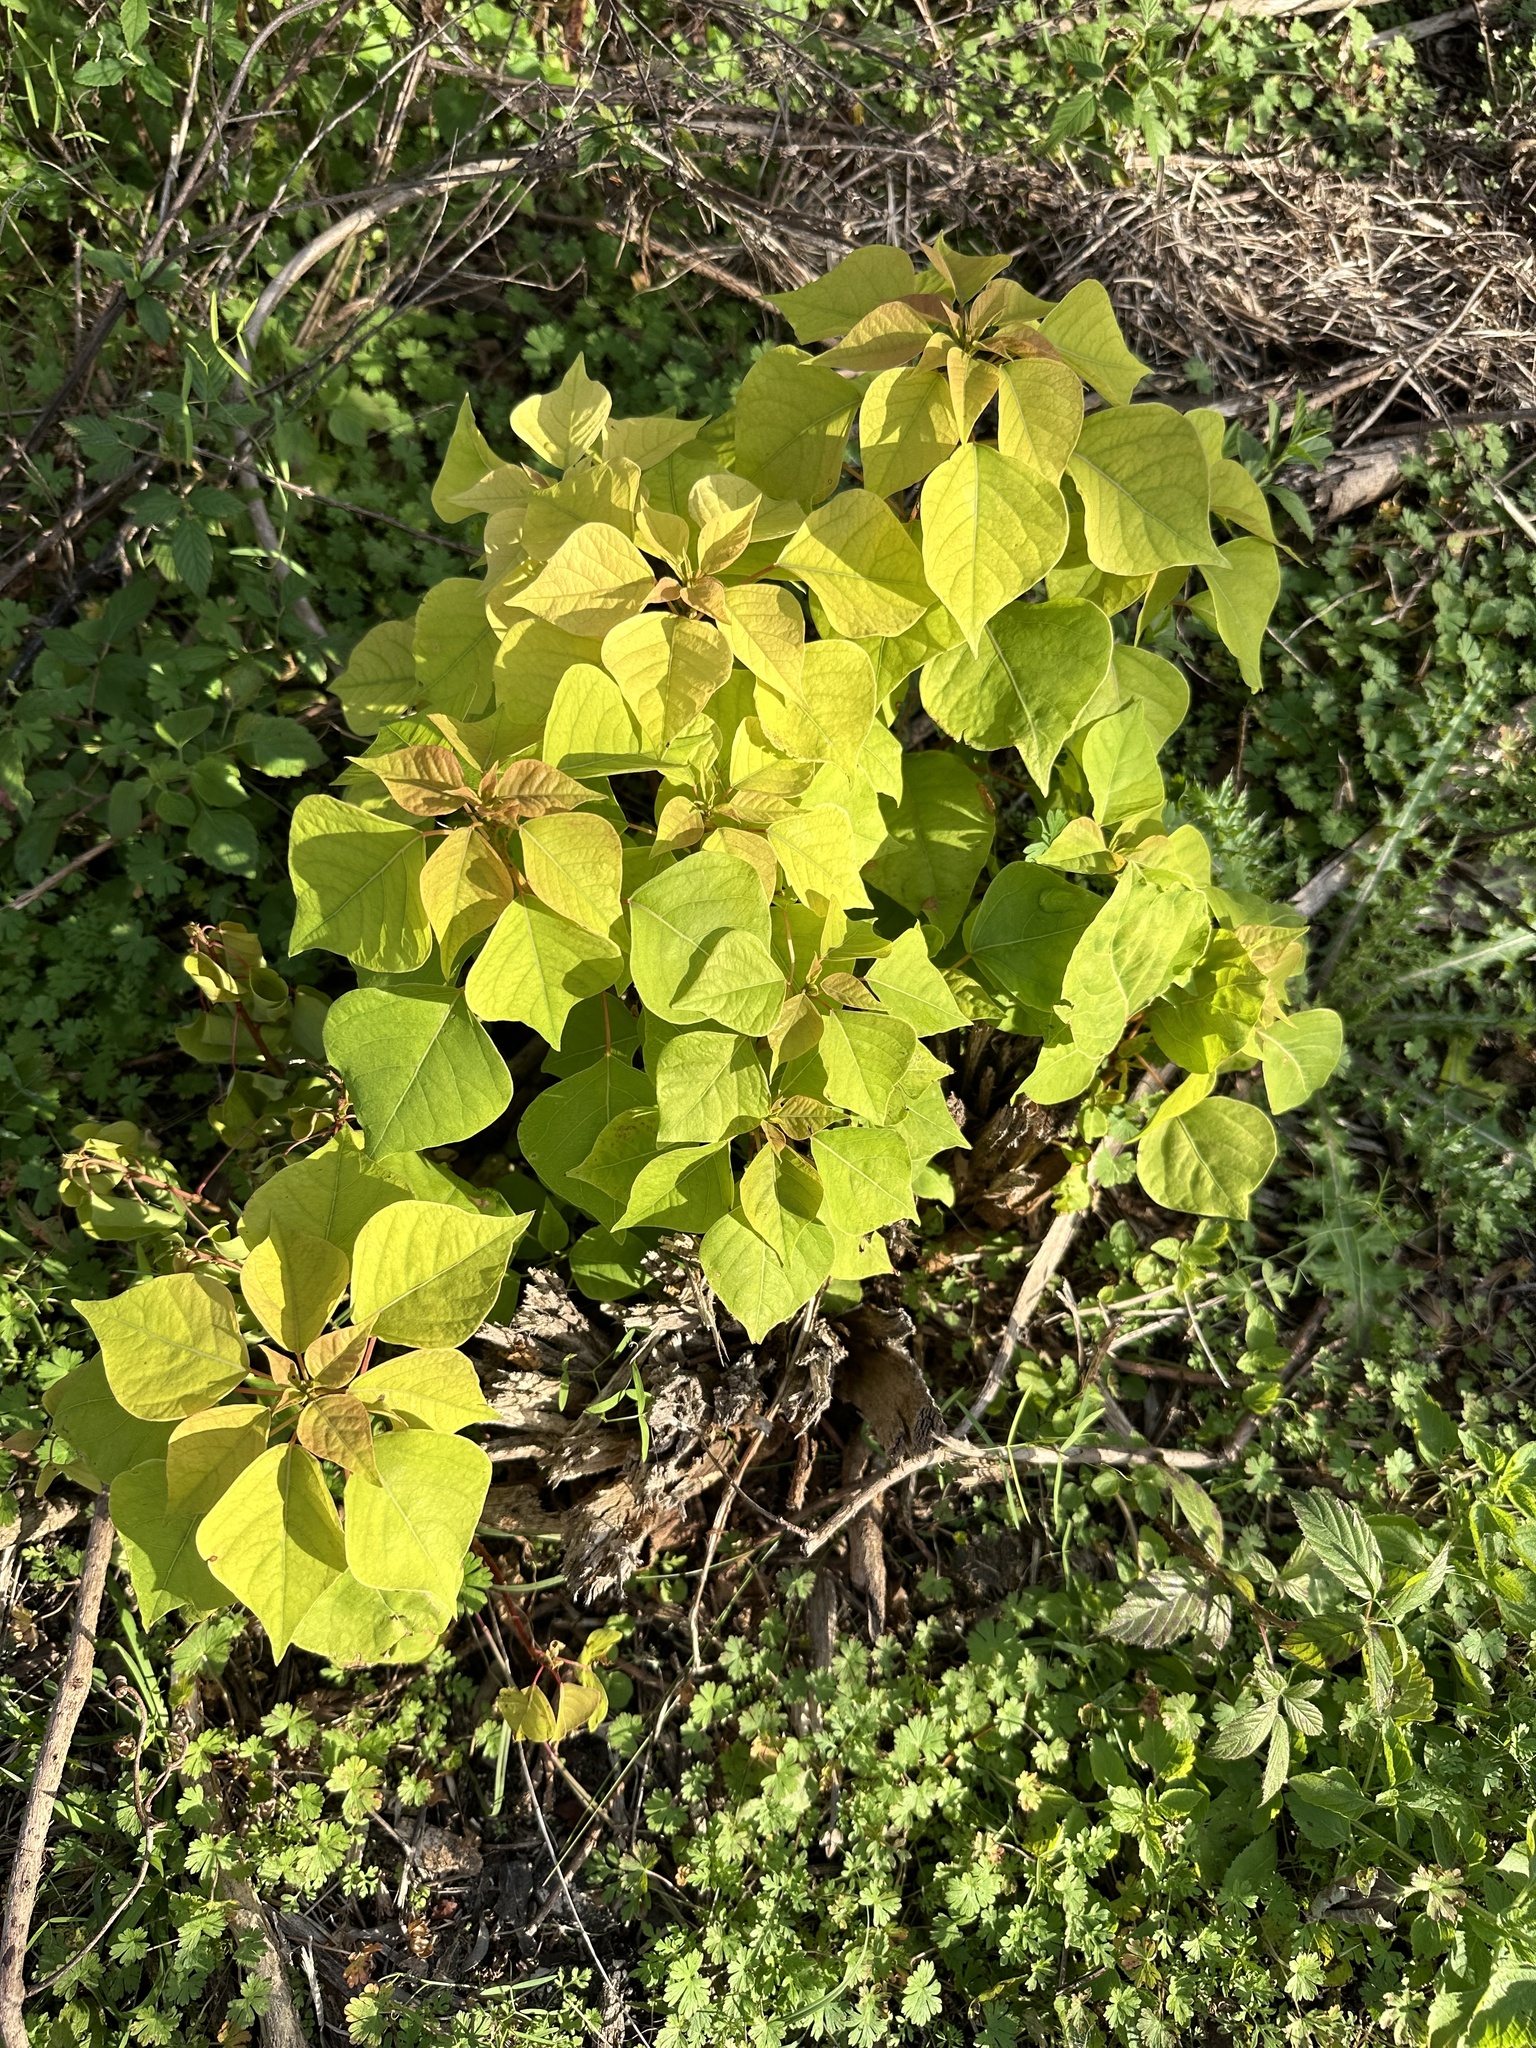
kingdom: Plantae
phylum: Tracheophyta
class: Magnoliopsida
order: Malpighiales
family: Euphorbiaceae
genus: Triadica
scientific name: Triadica sebifera
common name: Chinese tallow
